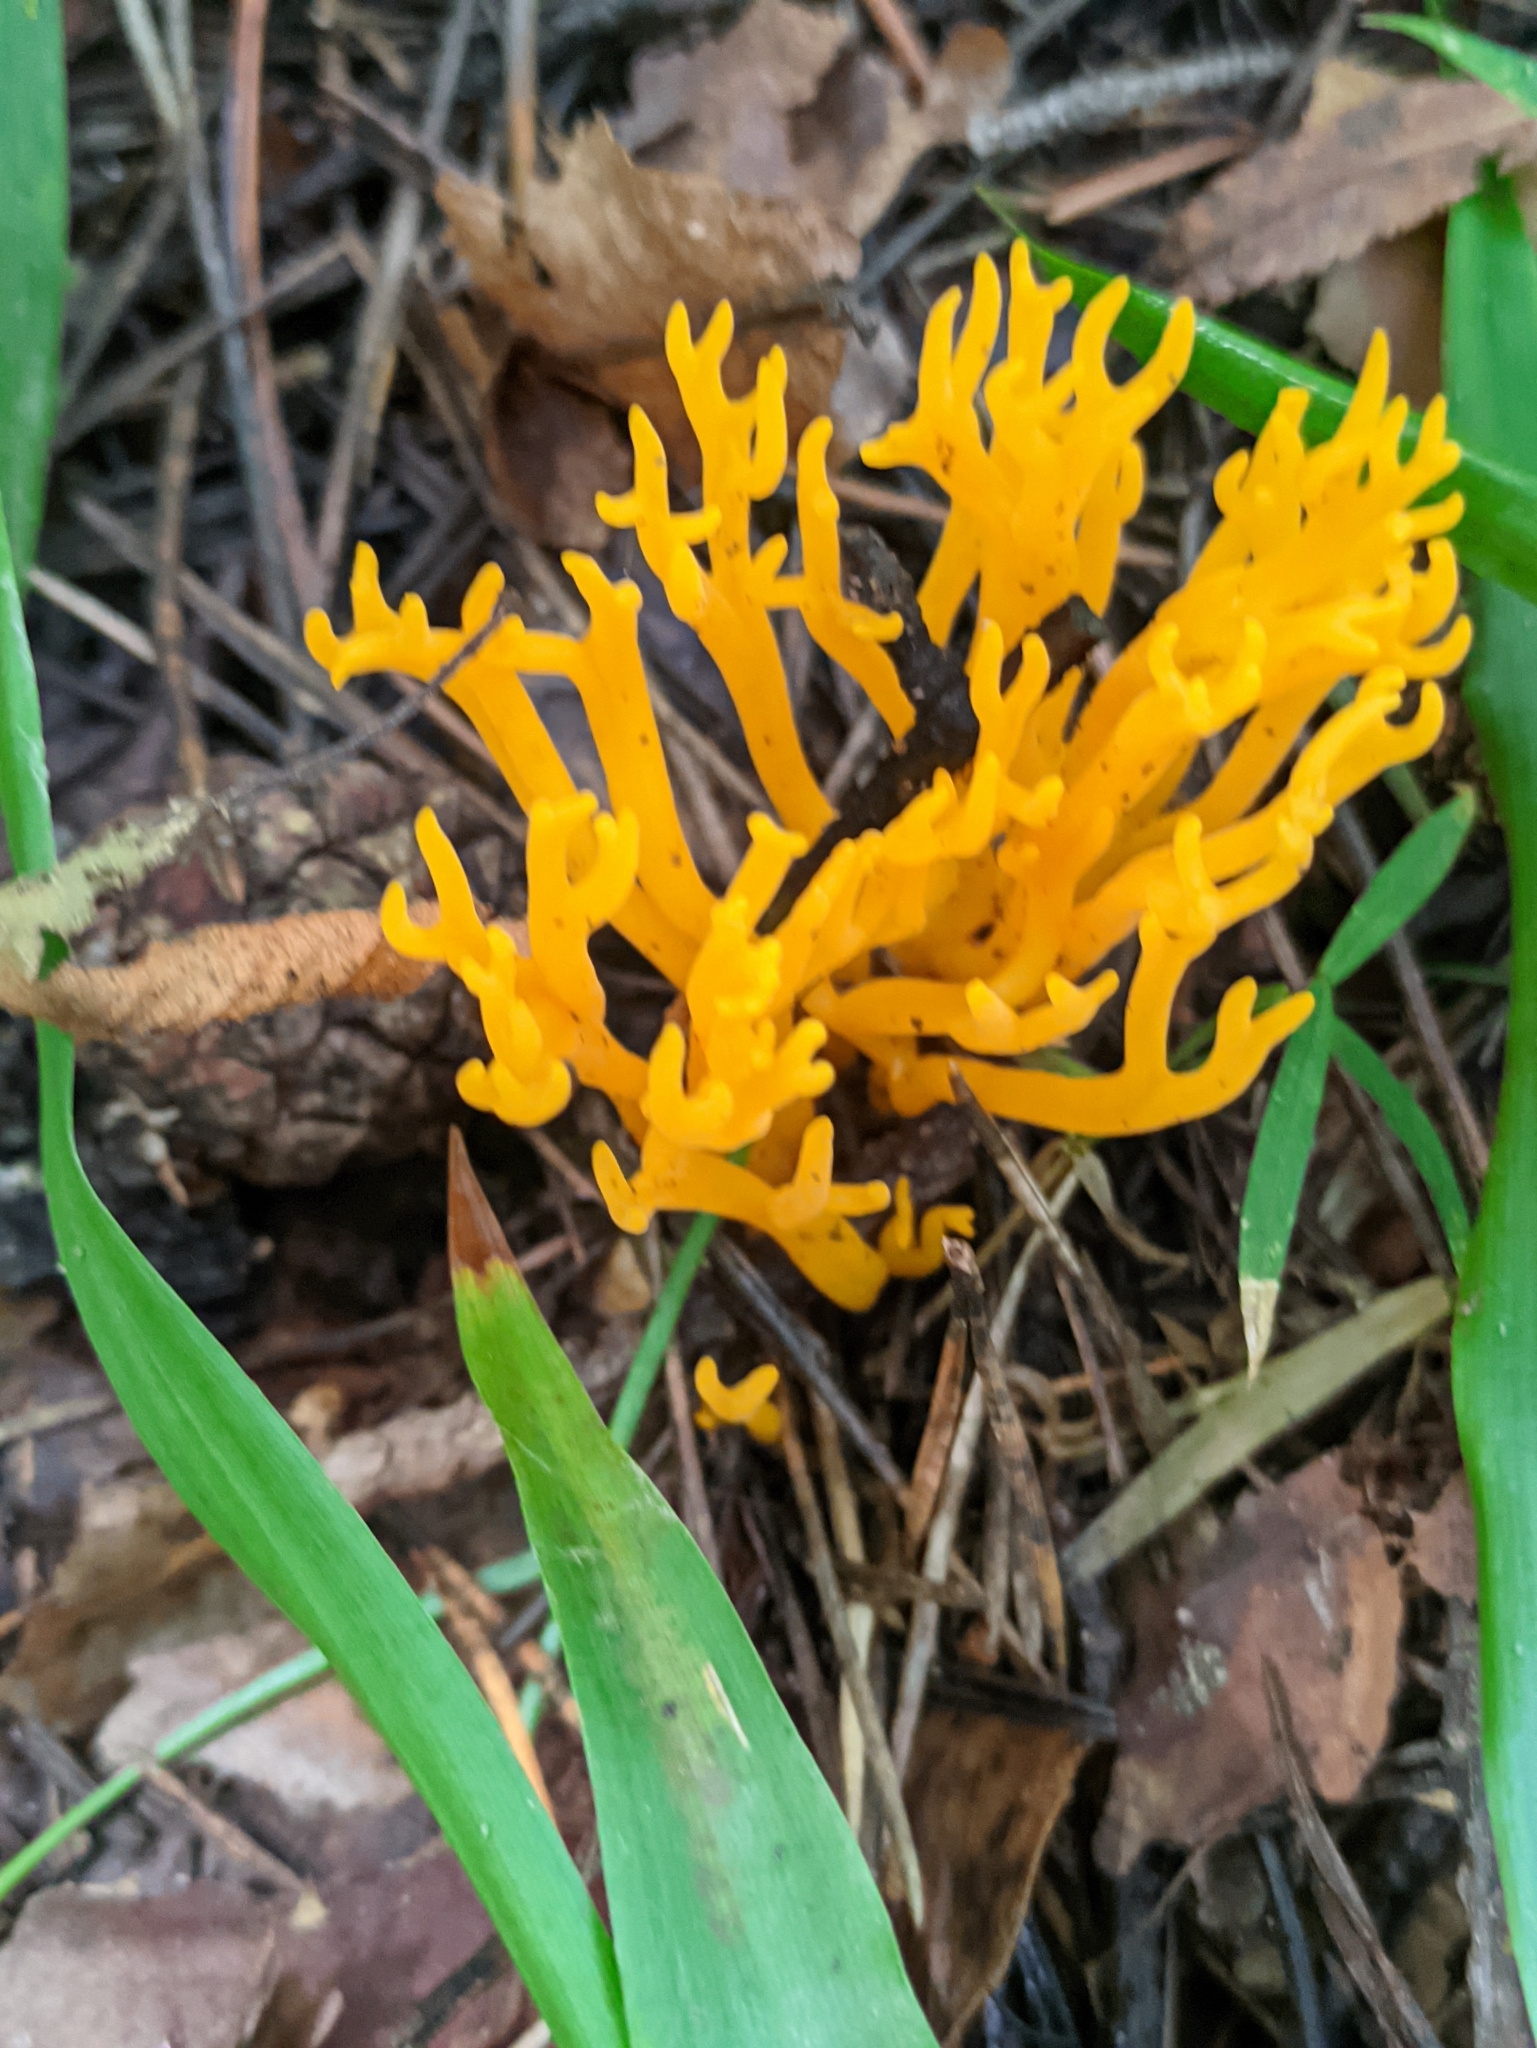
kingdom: Fungi
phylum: Basidiomycota
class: Dacrymycetes
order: Dacrymycetales
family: Dacrymycetaceae
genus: Calocera
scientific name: Calocera viscosa
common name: Yellow stagshorn
